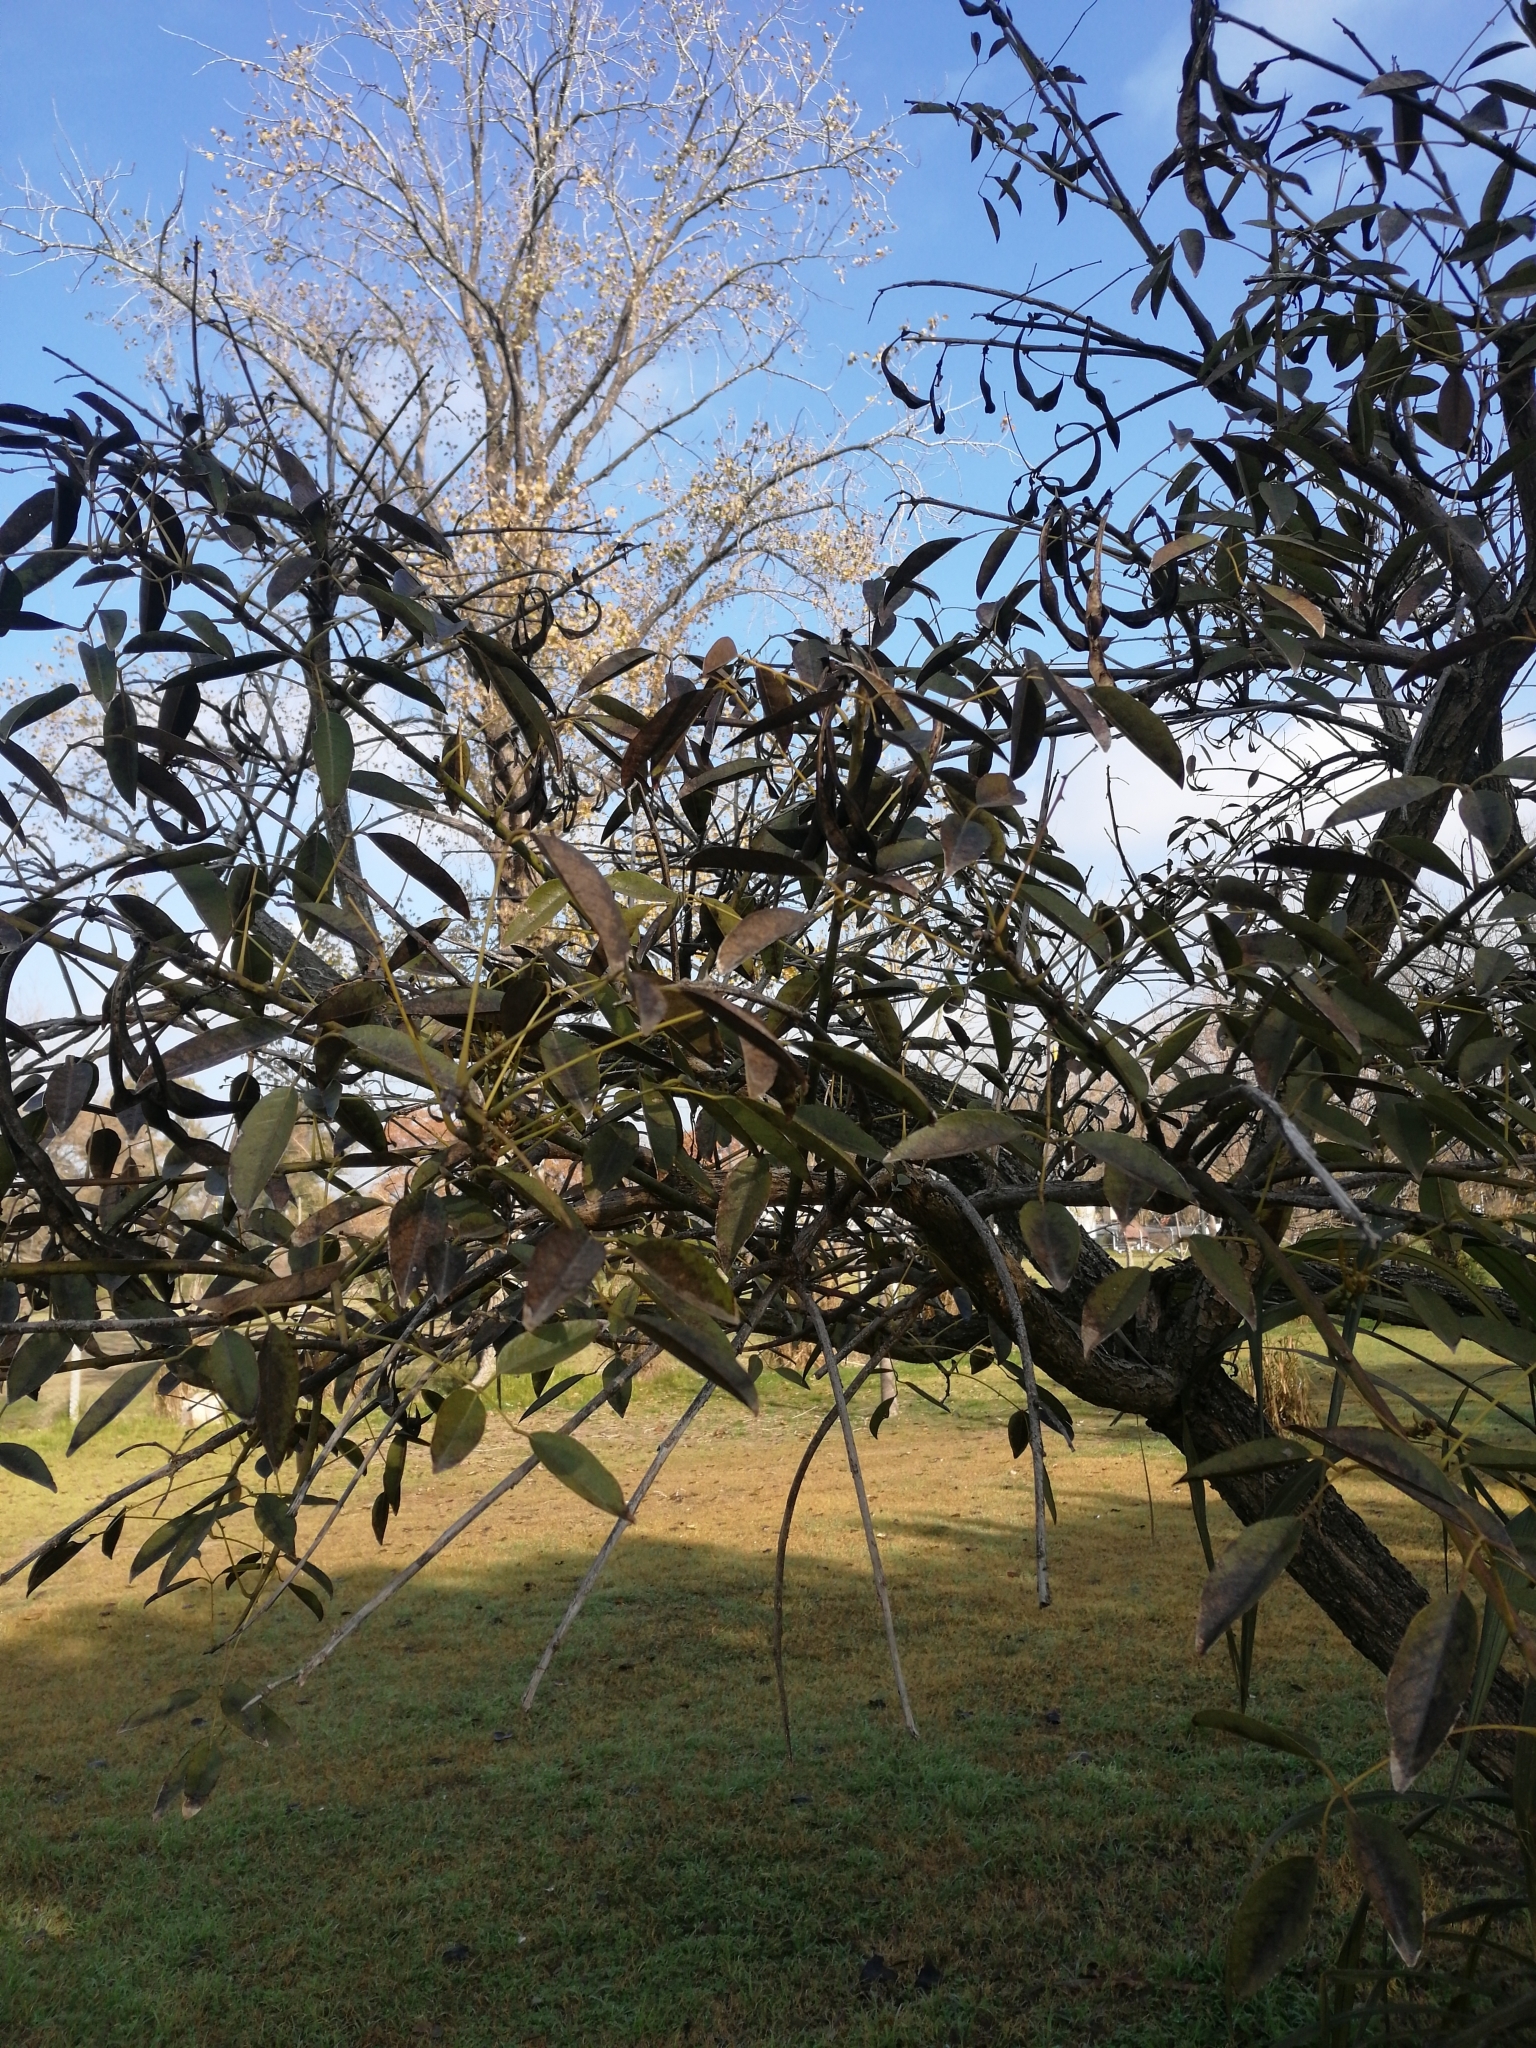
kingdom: Plantae
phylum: Tracheophyta
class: Magnoliopsida
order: Fabales
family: Fabaceae
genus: Erythrina
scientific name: Erythrina crista-galli
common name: Cockspur coral tree
